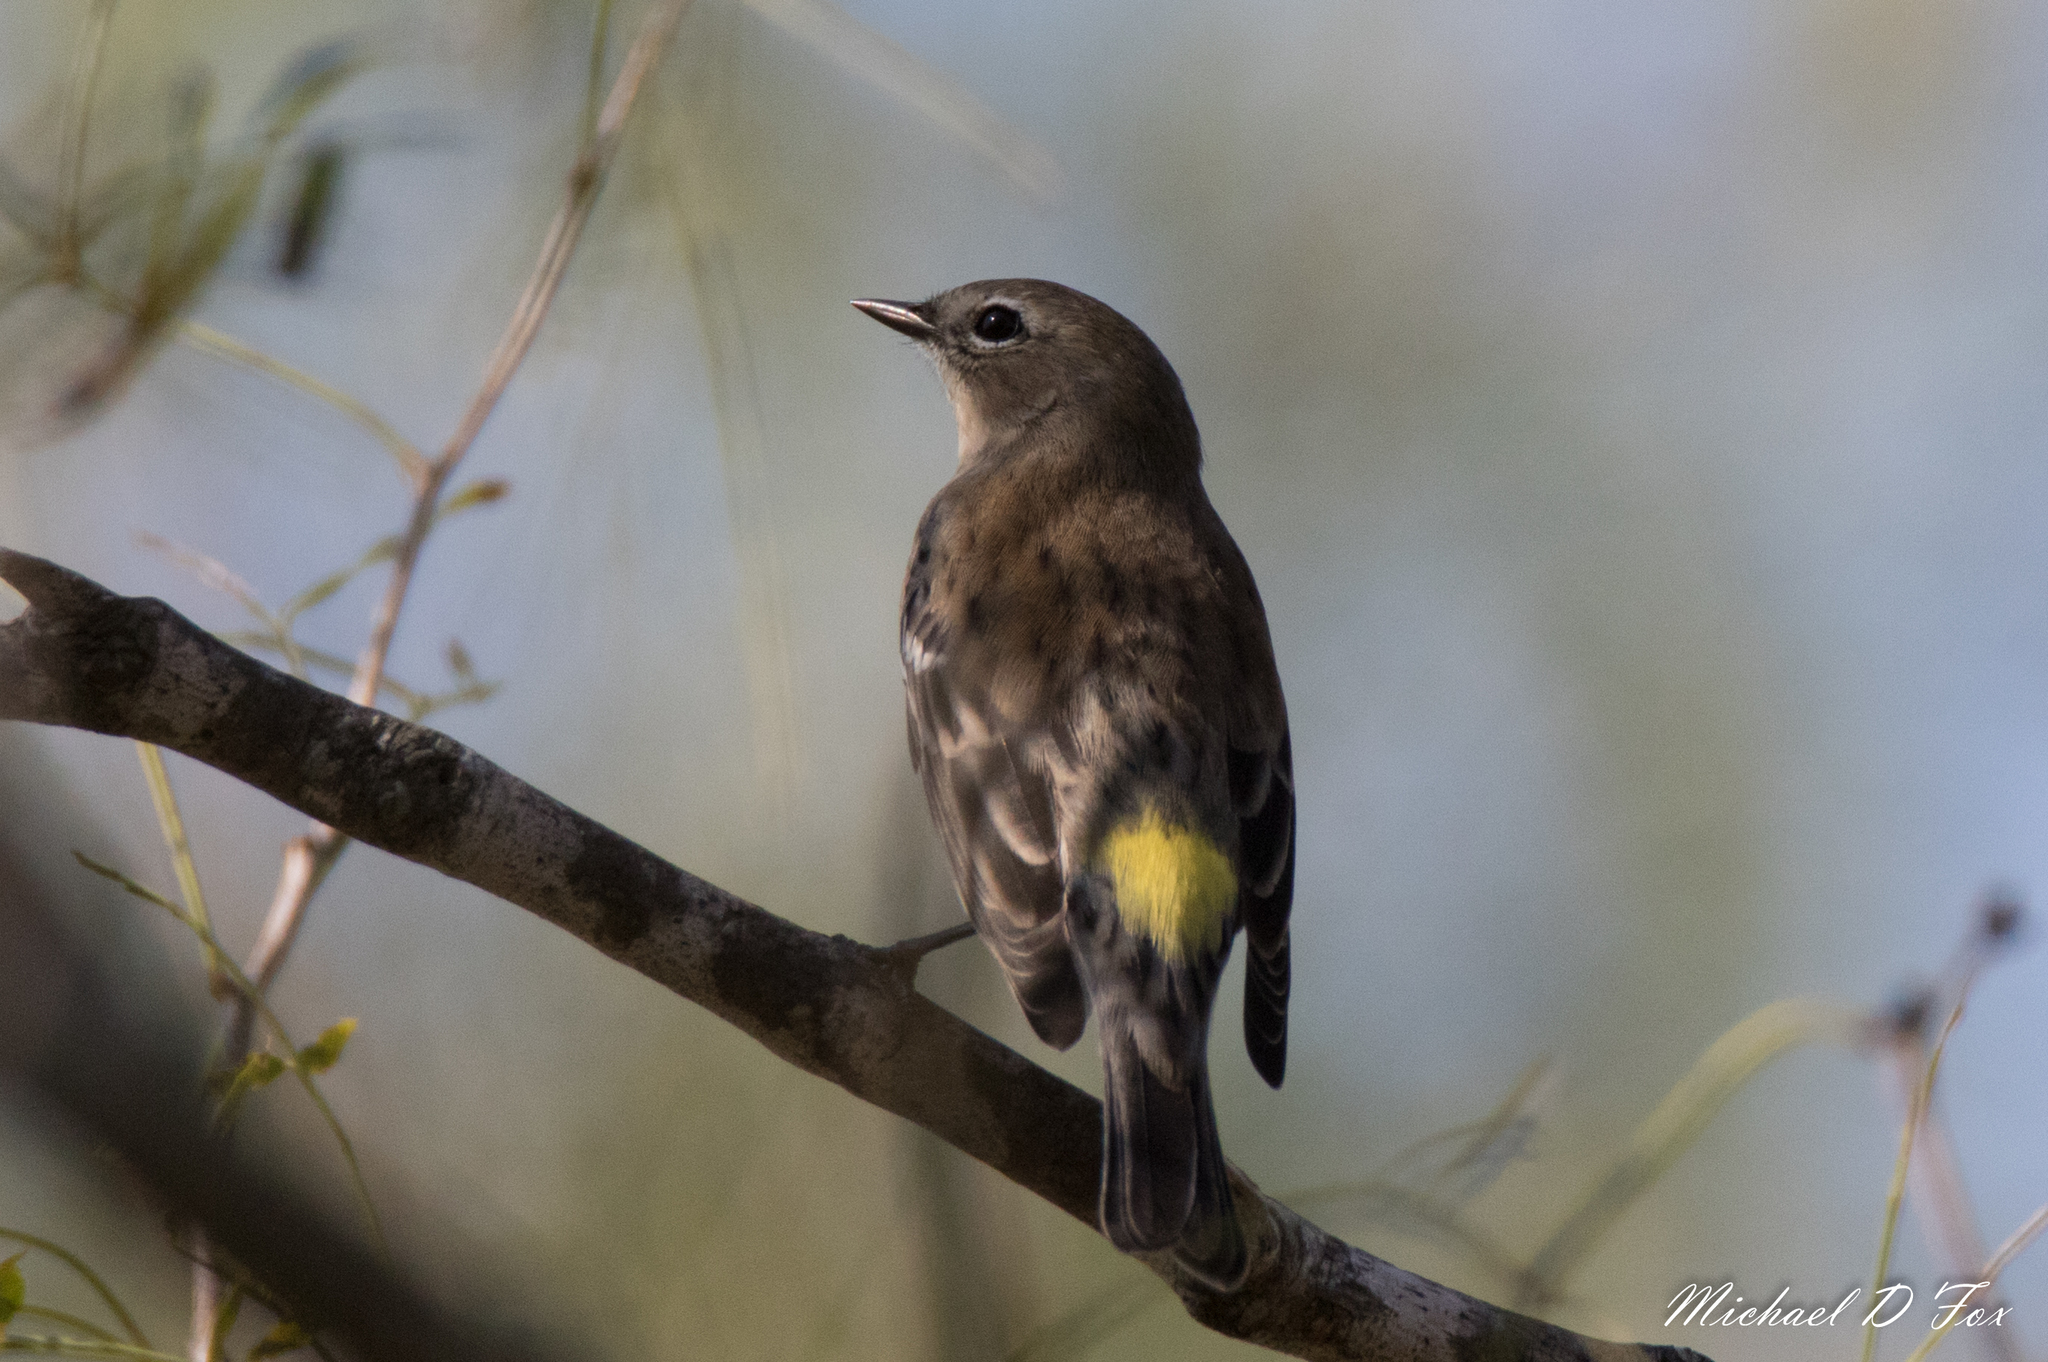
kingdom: Animalia
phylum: Chordata
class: Aves
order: Passeriformes
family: Parulidae
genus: Setophaga
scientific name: Setophaga coronata
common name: Myrtle warbler
